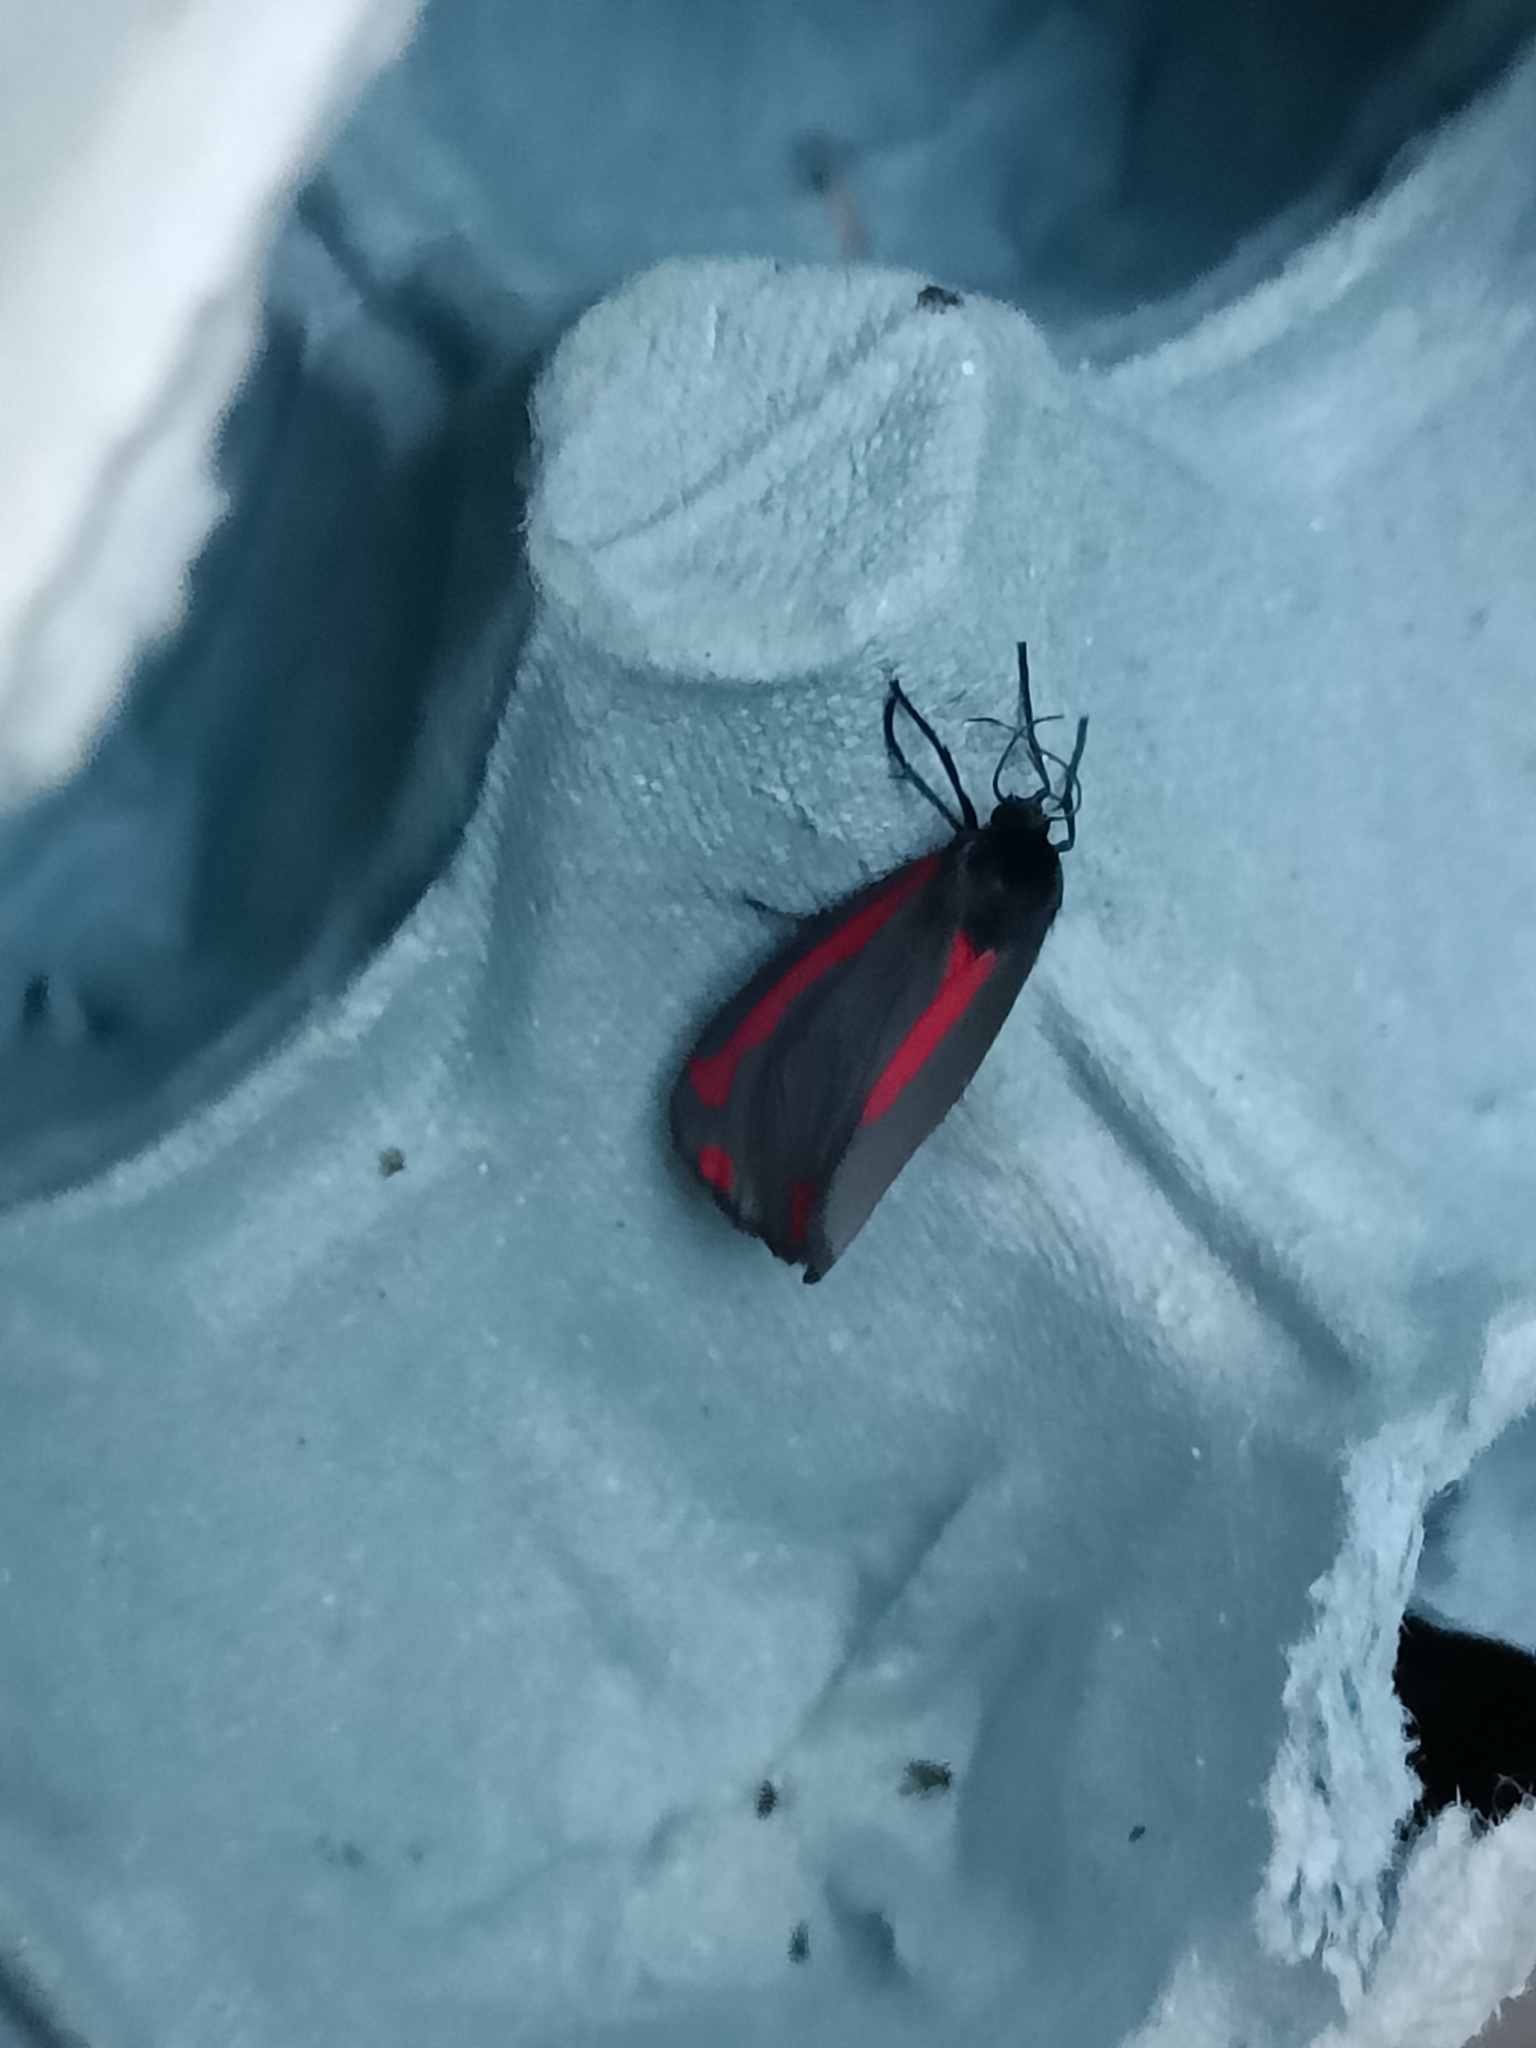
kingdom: Animalia
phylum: Arthropoda
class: Insecta
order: Lepidoptera
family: Erebidae
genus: Tyria
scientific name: Tyria jacobaeae
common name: Cinnabar
